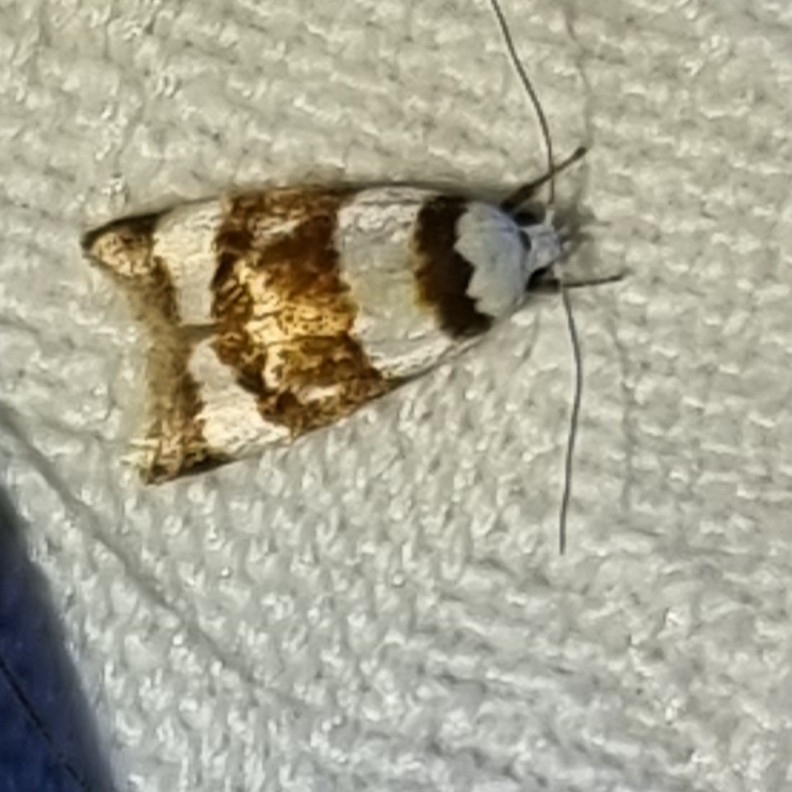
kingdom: Animalia
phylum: Arthropoda
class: Insecta
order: Lepidoptera
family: Oecophoridae
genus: Catacometes
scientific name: Catacometes phanozona
